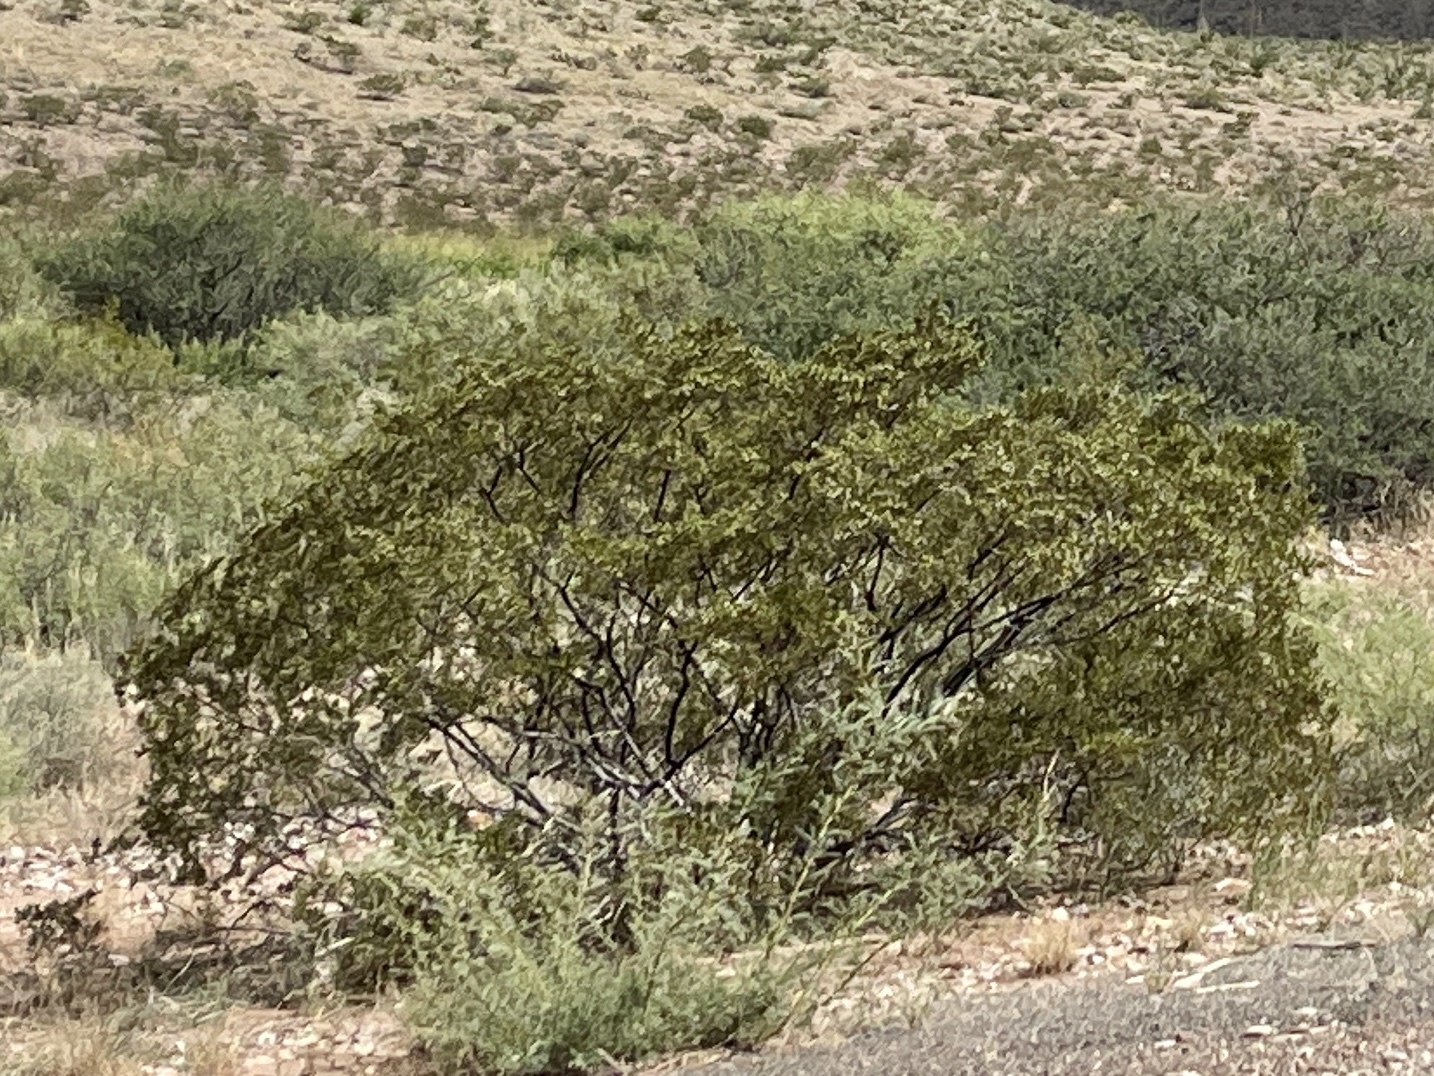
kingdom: Plantae
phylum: Tracheophyta
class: Magnoliopsida
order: Zygophyllales
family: Zygophyllaceae
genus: Larrea
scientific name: Larrea tridentata
